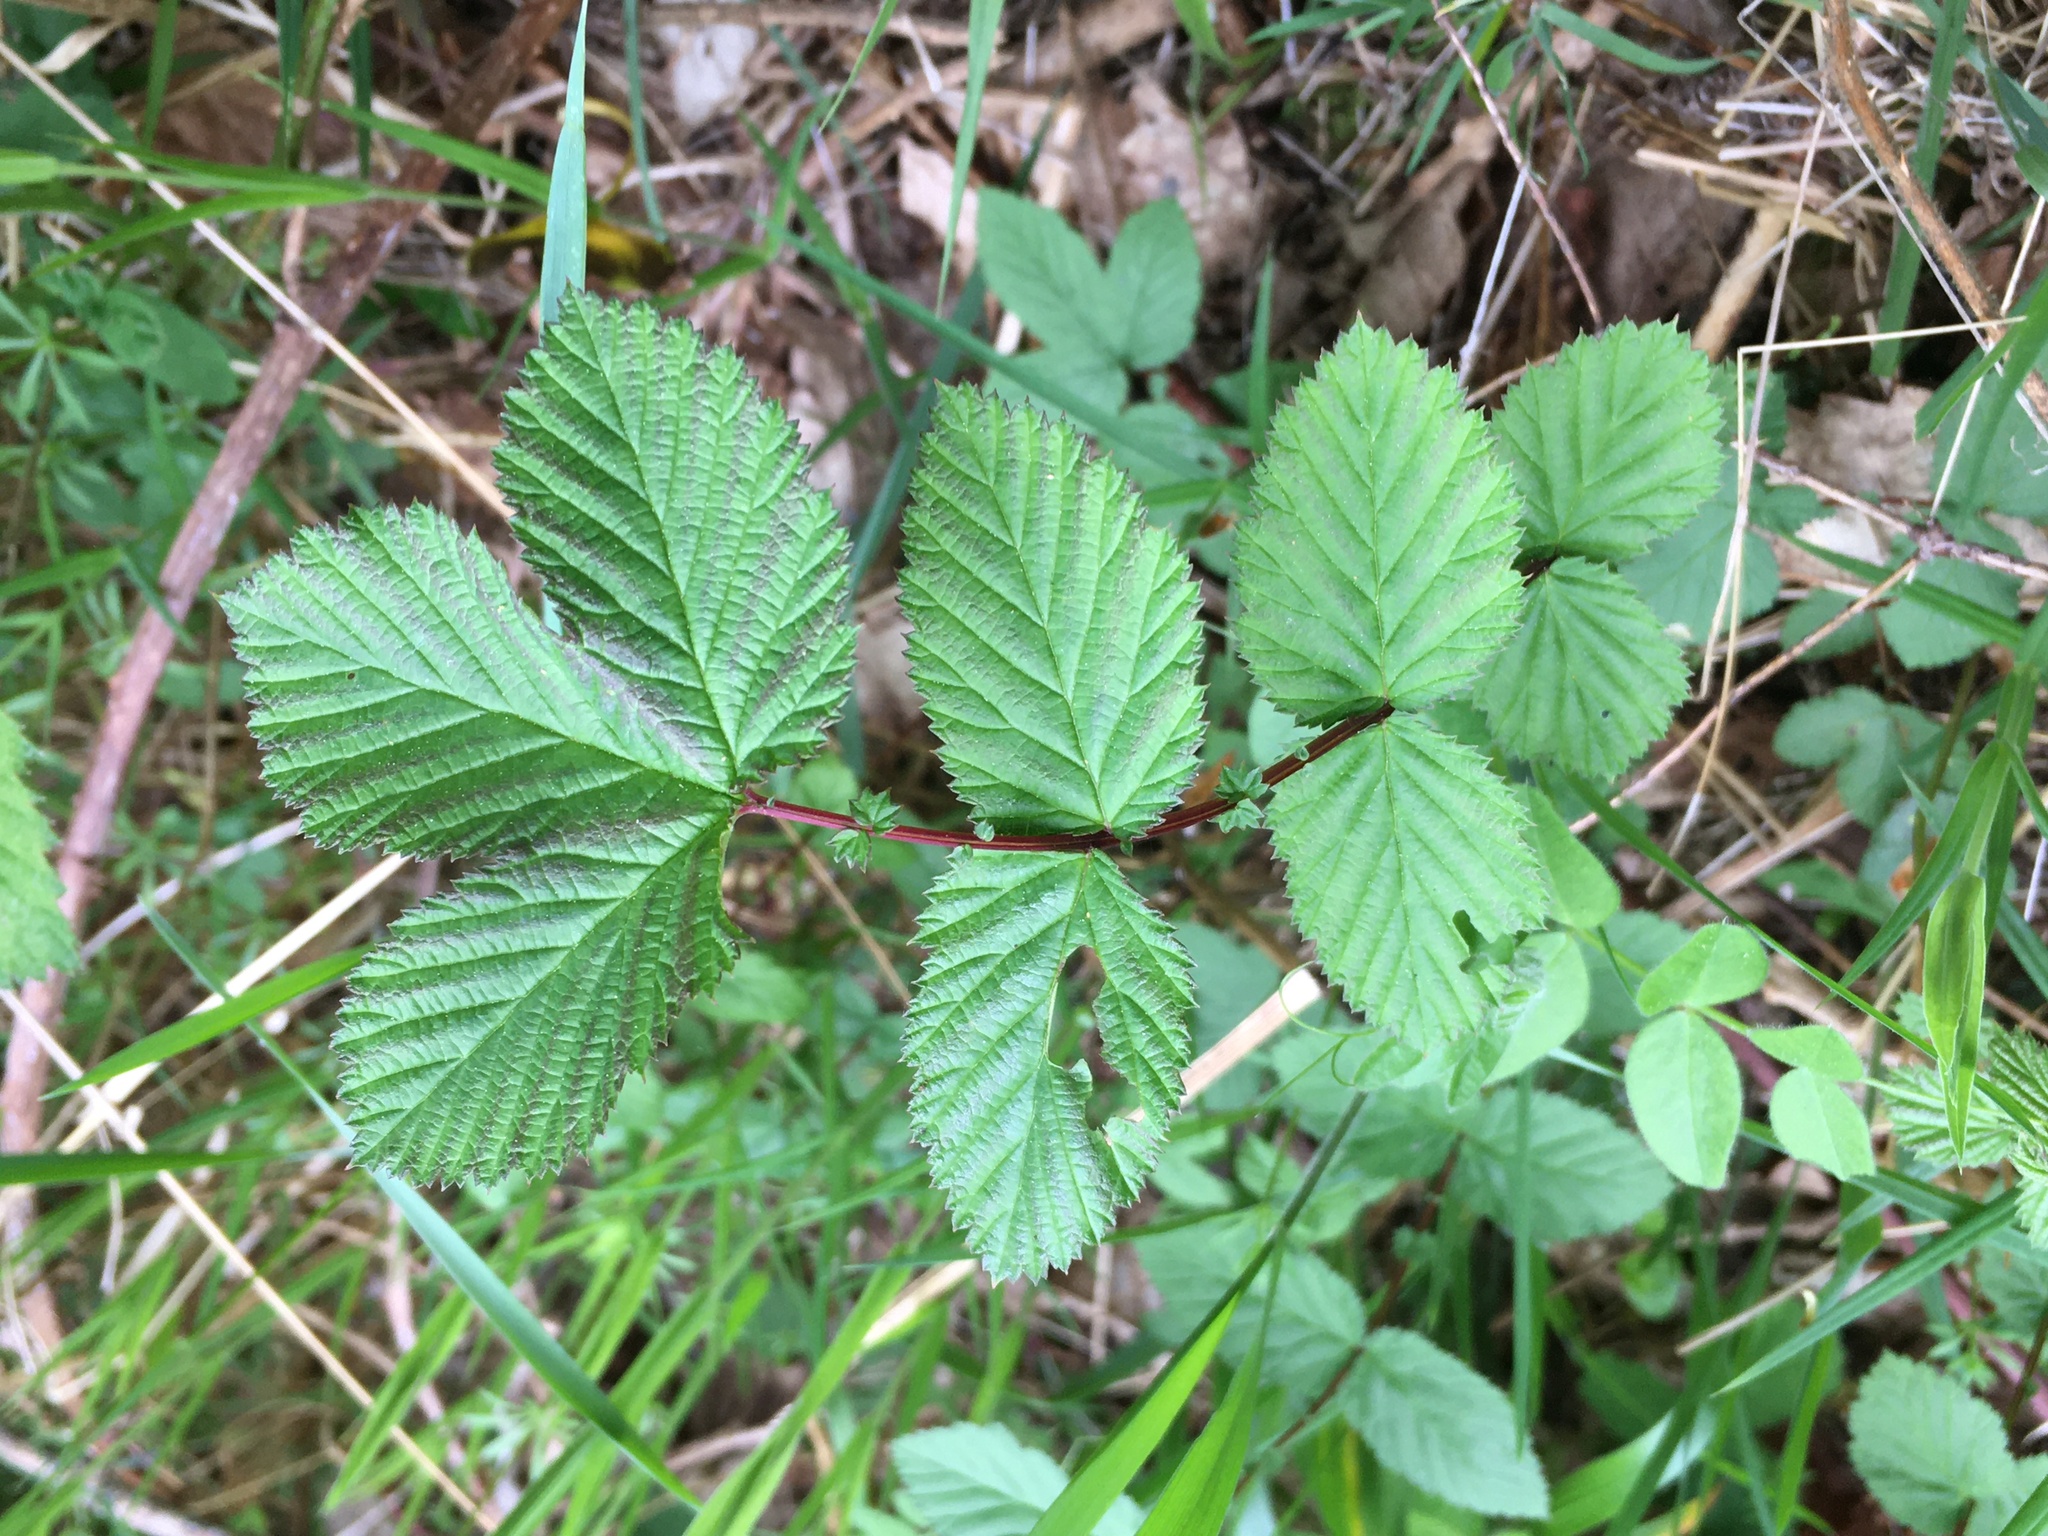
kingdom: Plantae
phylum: Tracheophyta
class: Magnoliopsida
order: Rosales
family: Rosaceae
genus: Filipendula
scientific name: Filipendula ulmaria
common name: Meadowsweet
